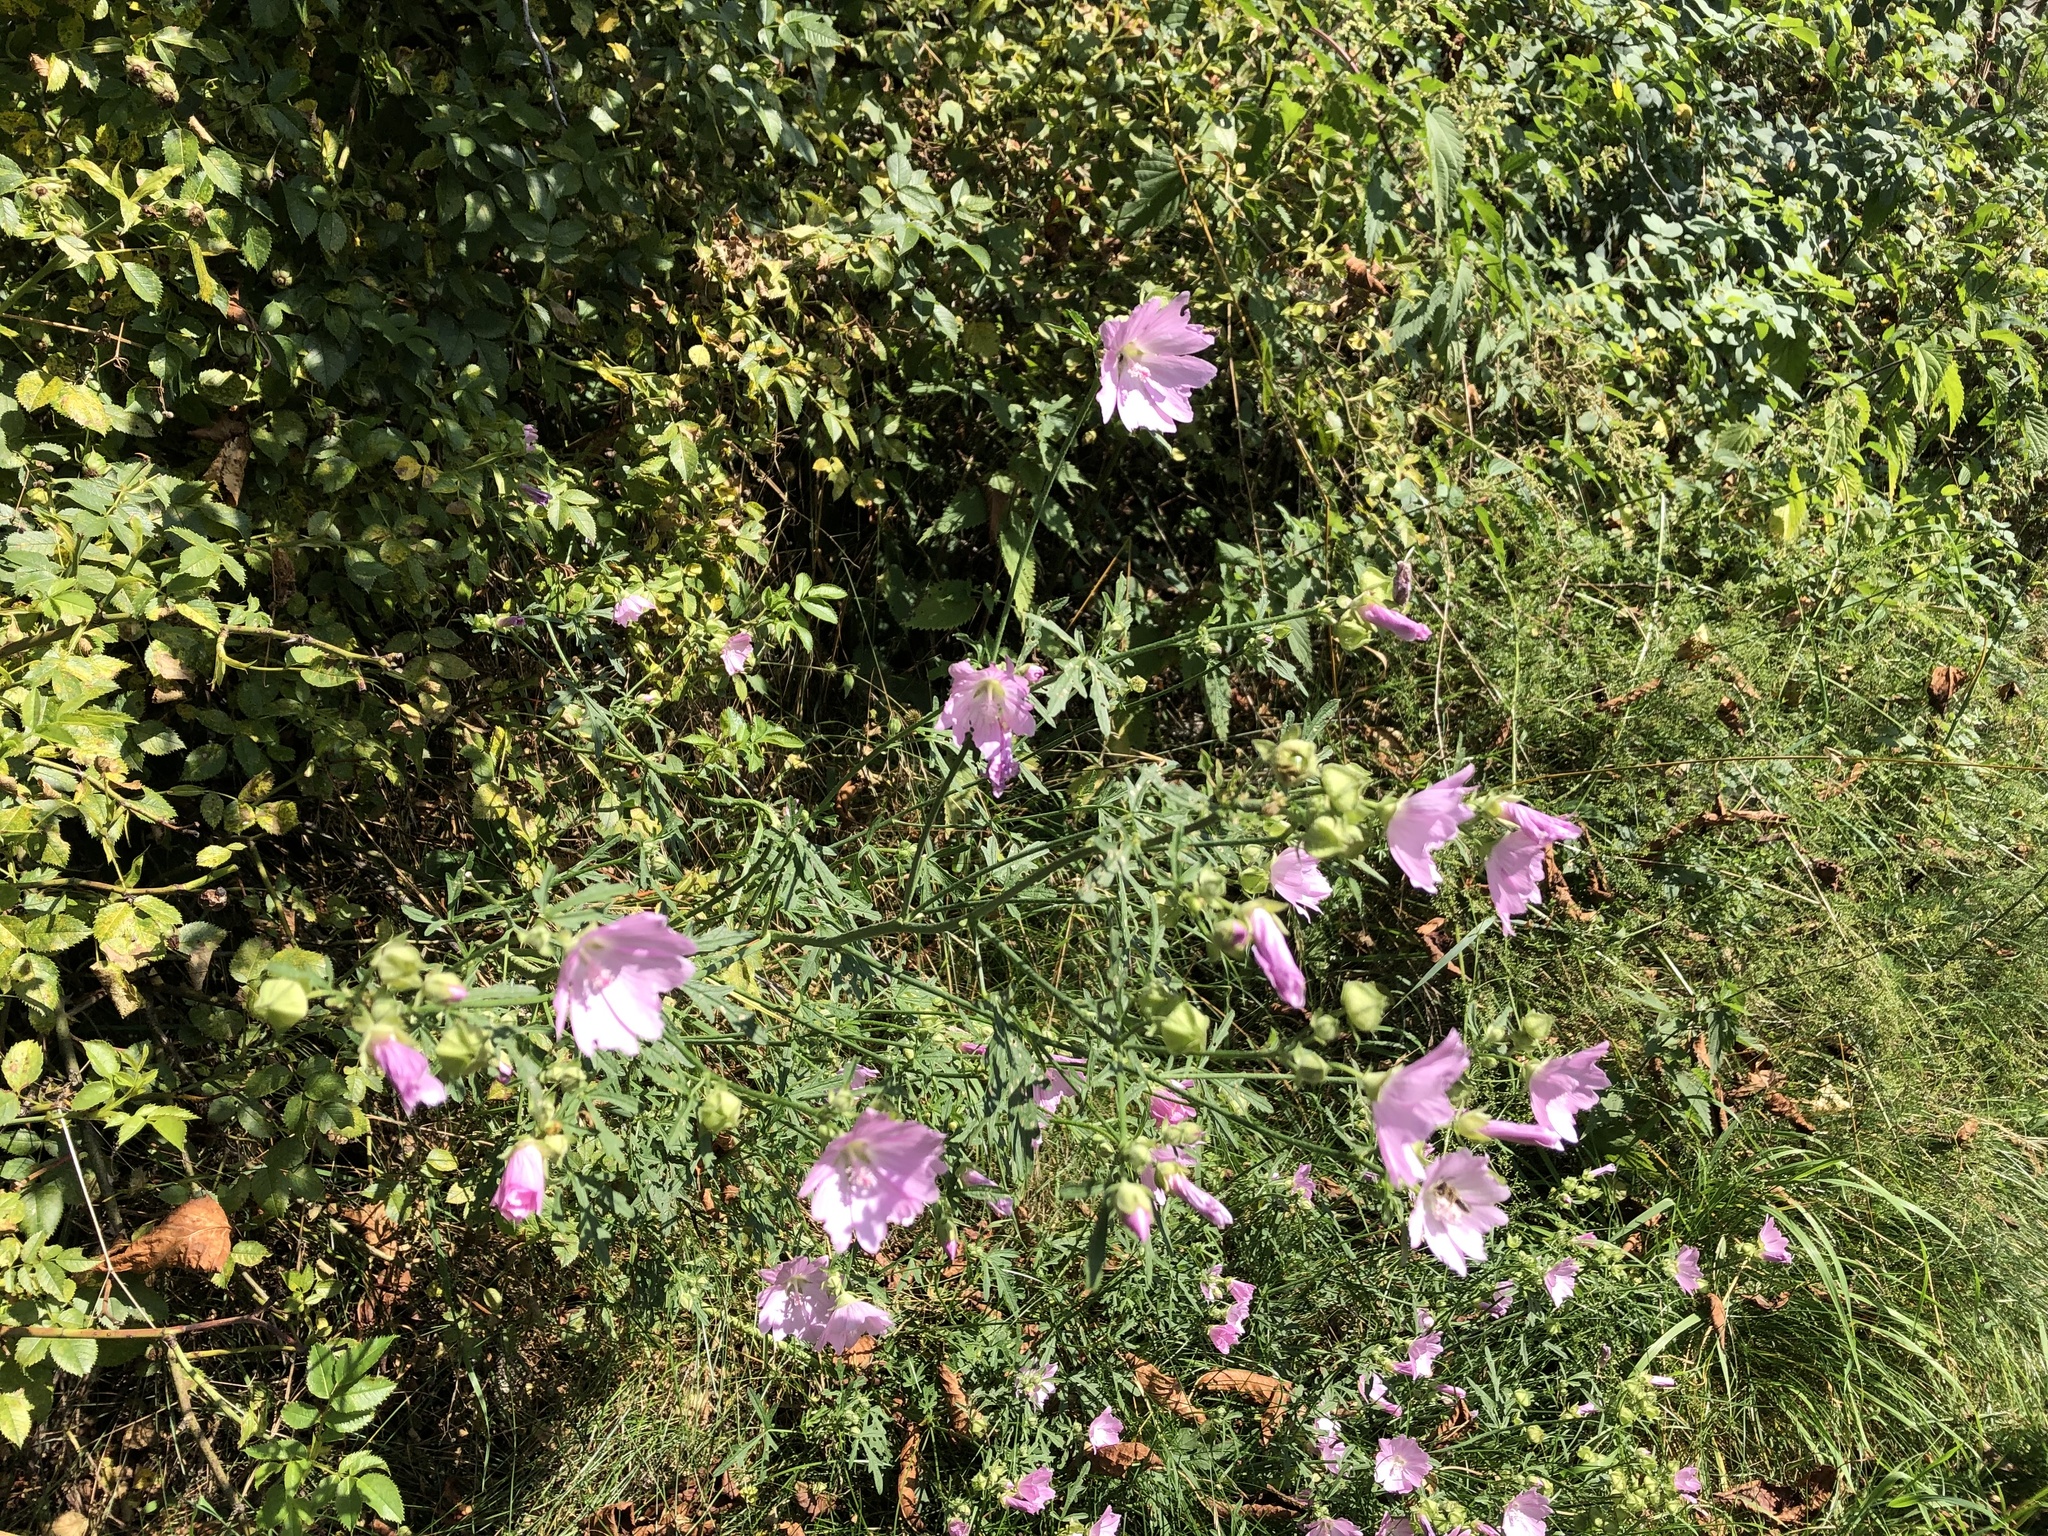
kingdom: Plantae
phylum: Tracheophyta
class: Magnoliopsida
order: Malvales
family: Malvaceae
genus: Malva
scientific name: Malva alcea
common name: Greater musk-mallow
